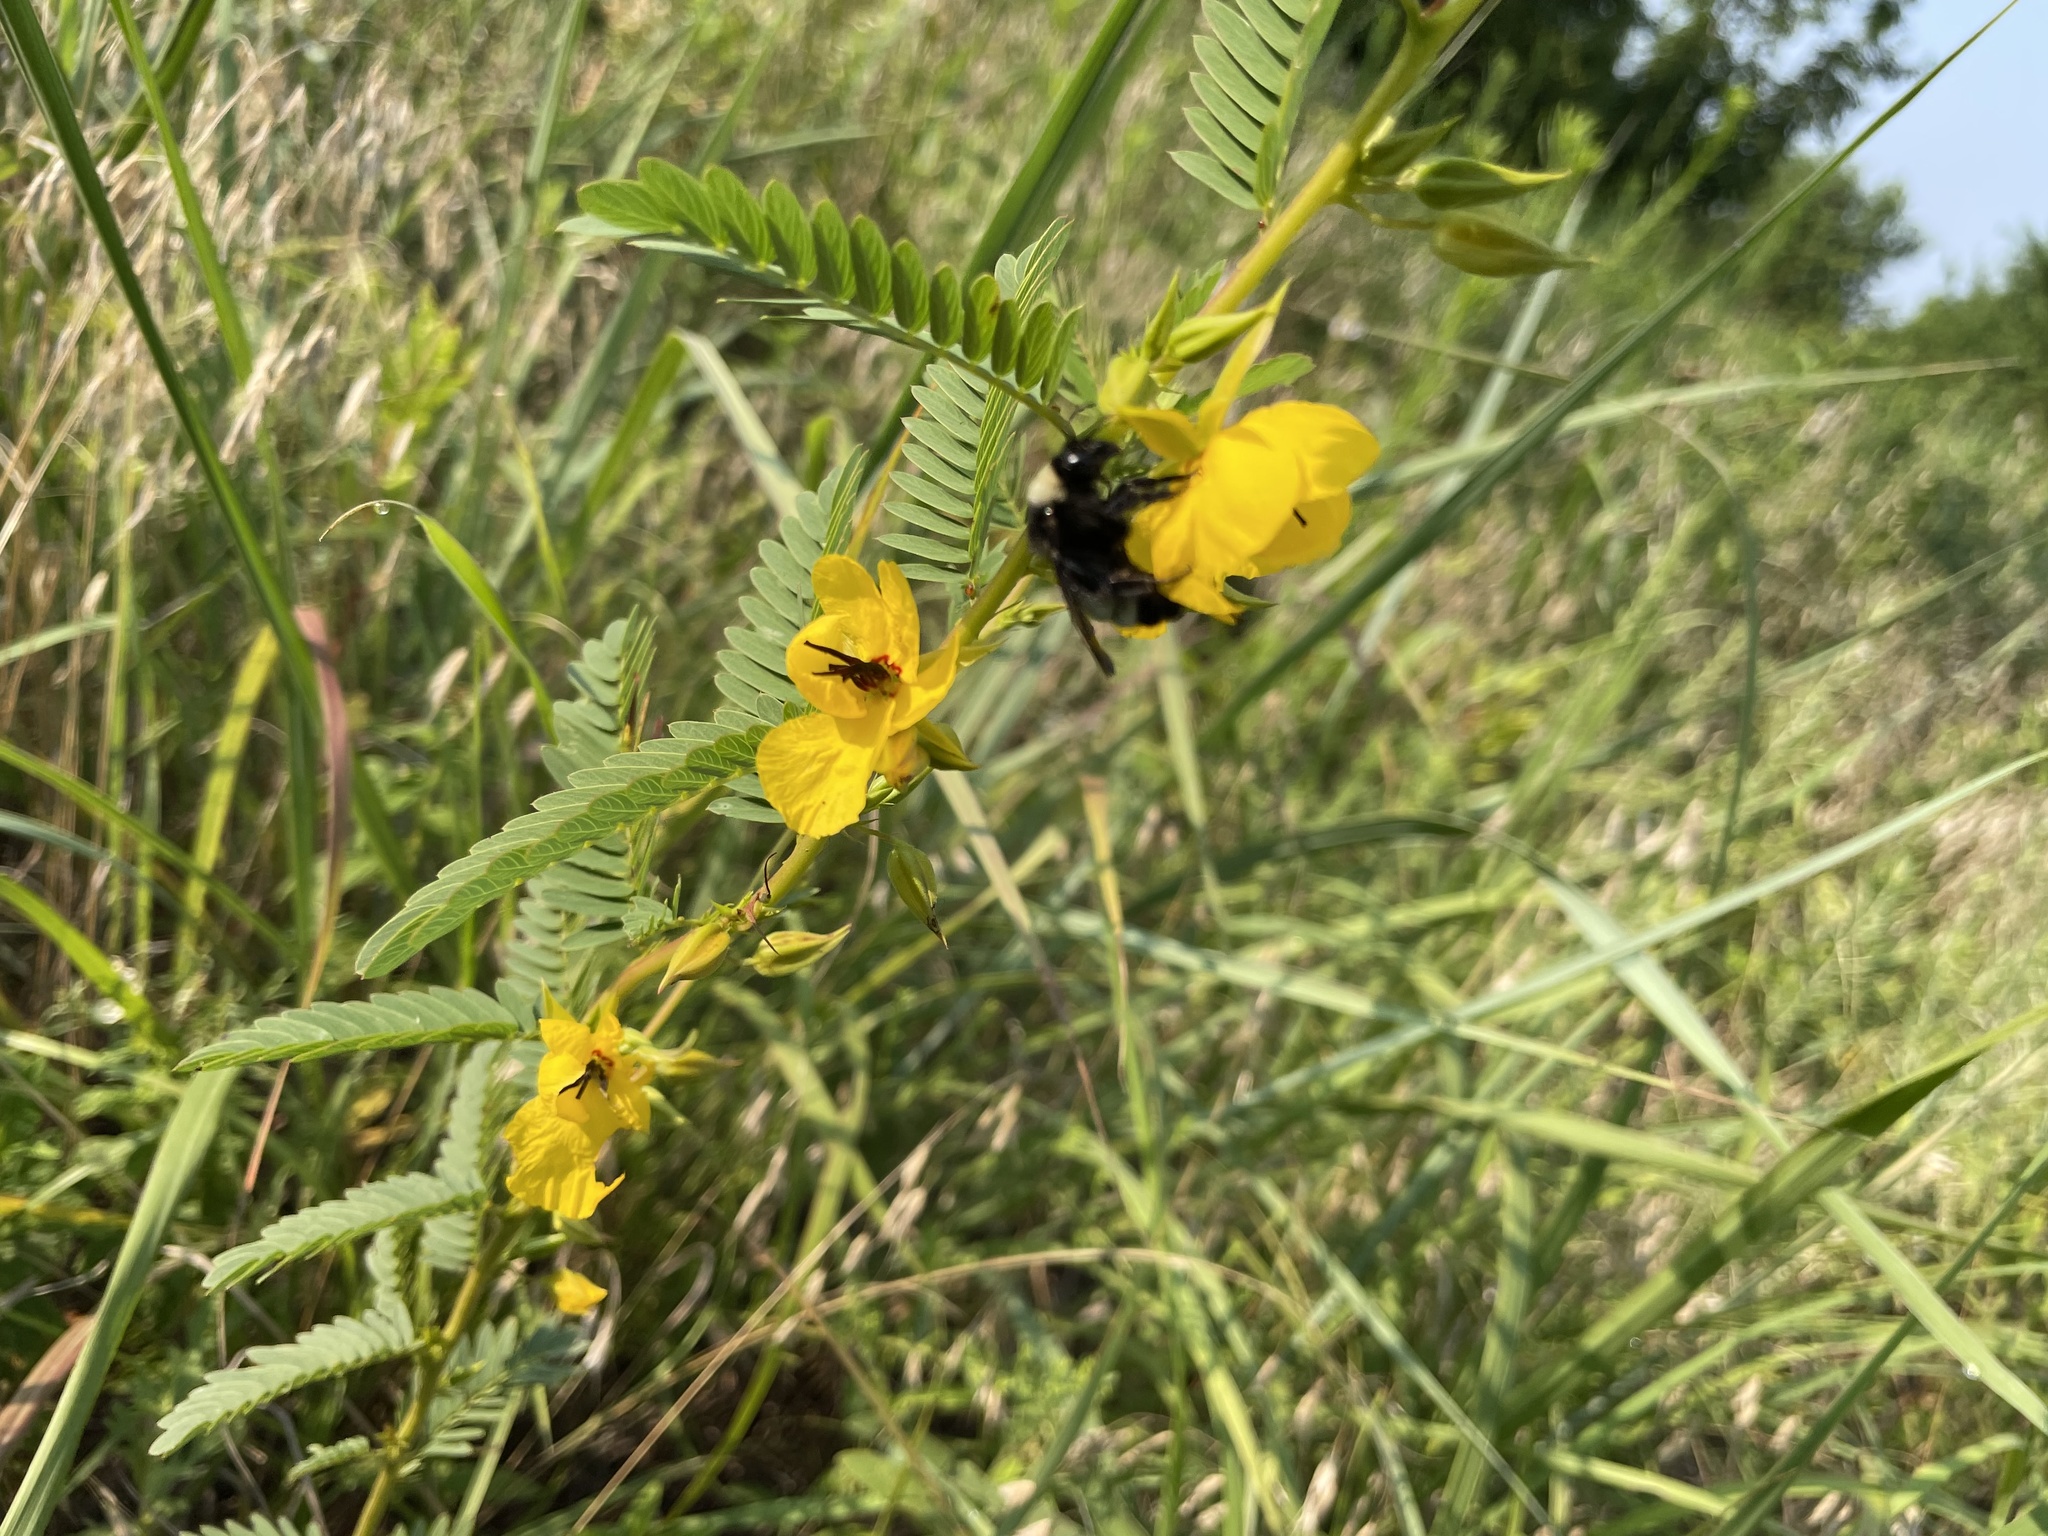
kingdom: Animalia
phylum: Arthropoda
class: Insecta
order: Hymenoptera
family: Apidae
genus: Bombus
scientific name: Bombus pensylvanicus
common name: Bumble bee
